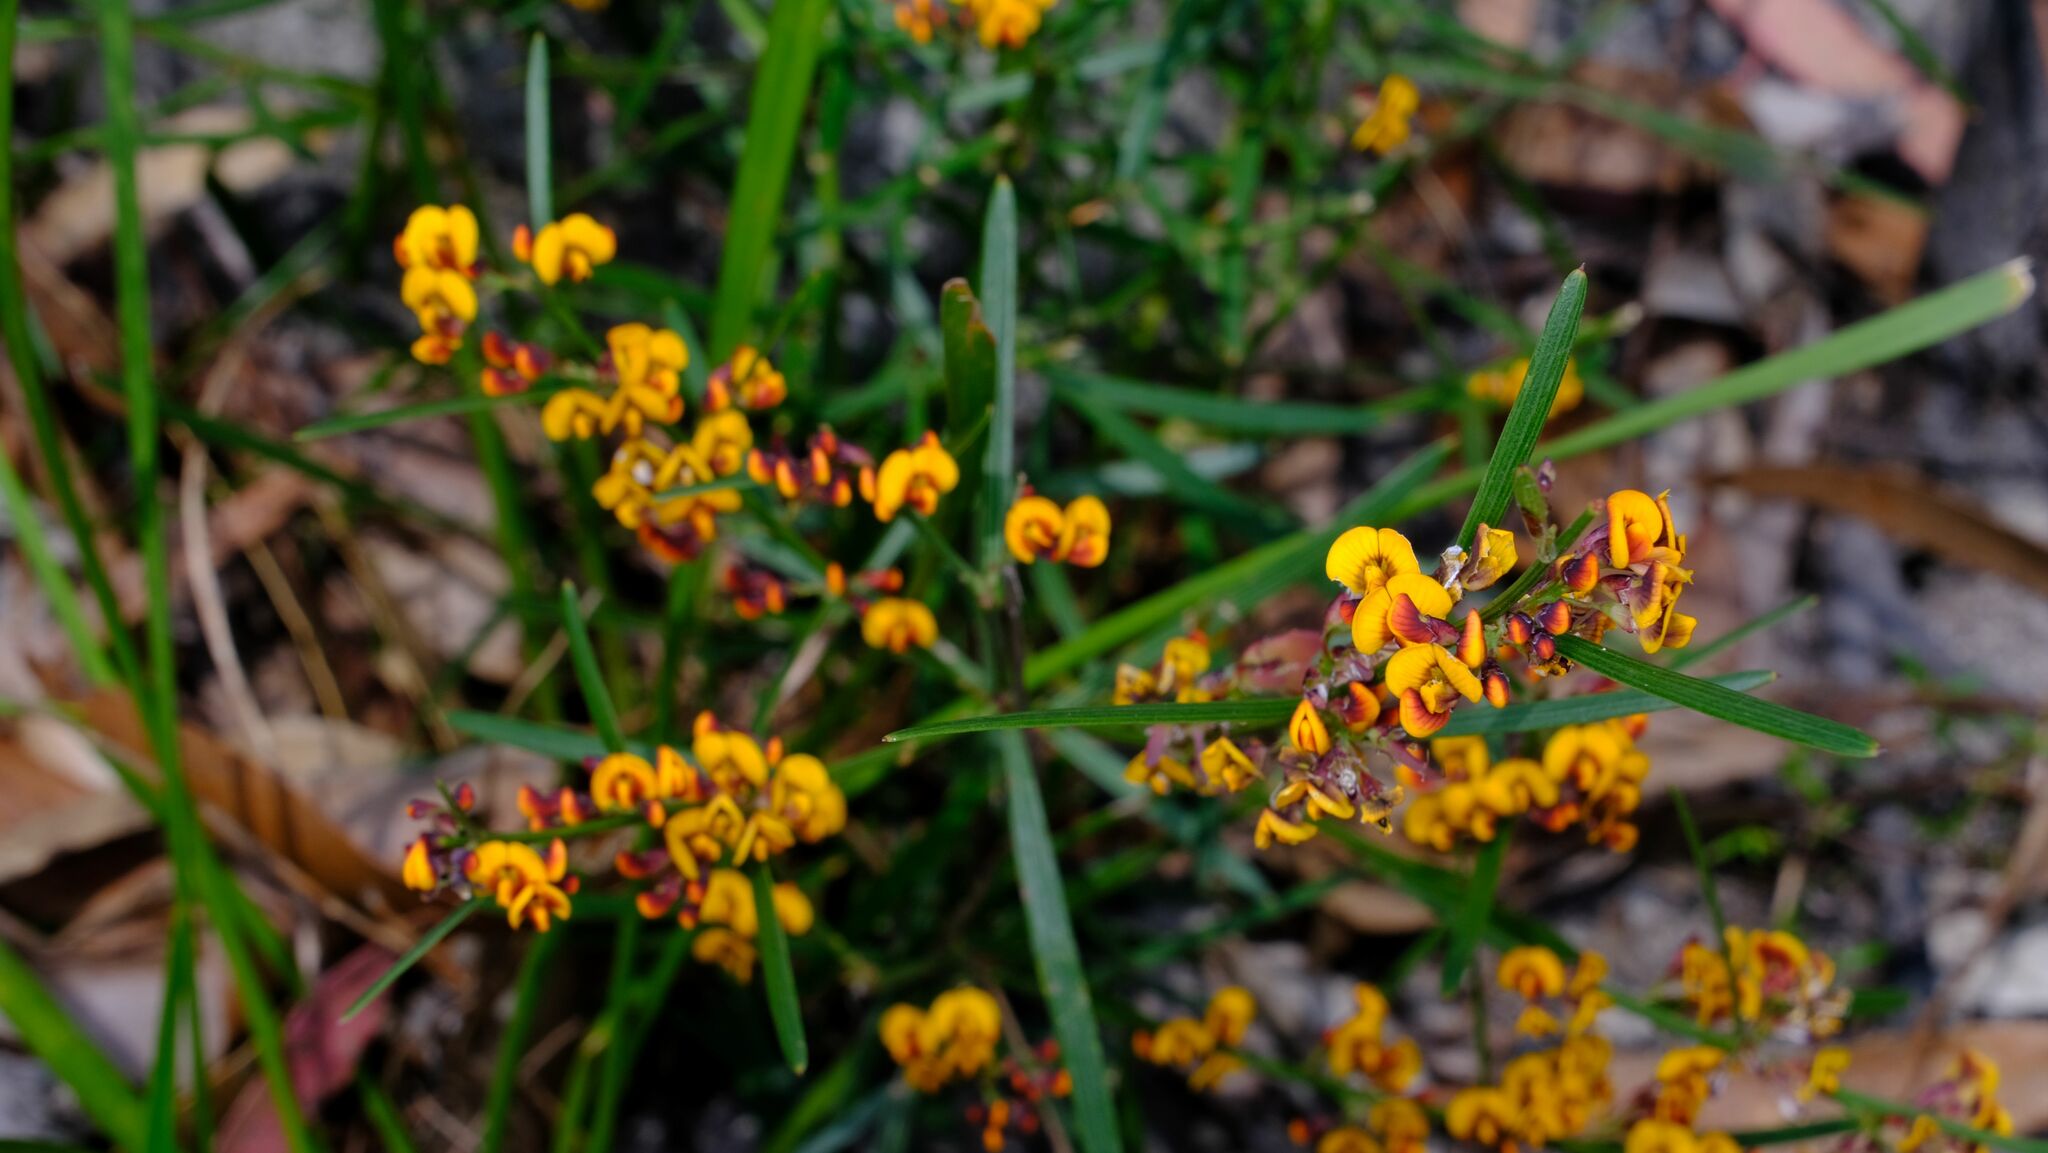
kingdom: Plantae
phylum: Tracheophyta
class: Magnoliopsida
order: Fabales
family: Fabaceae
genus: Daviesia
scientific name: Daviesia leptophylla
